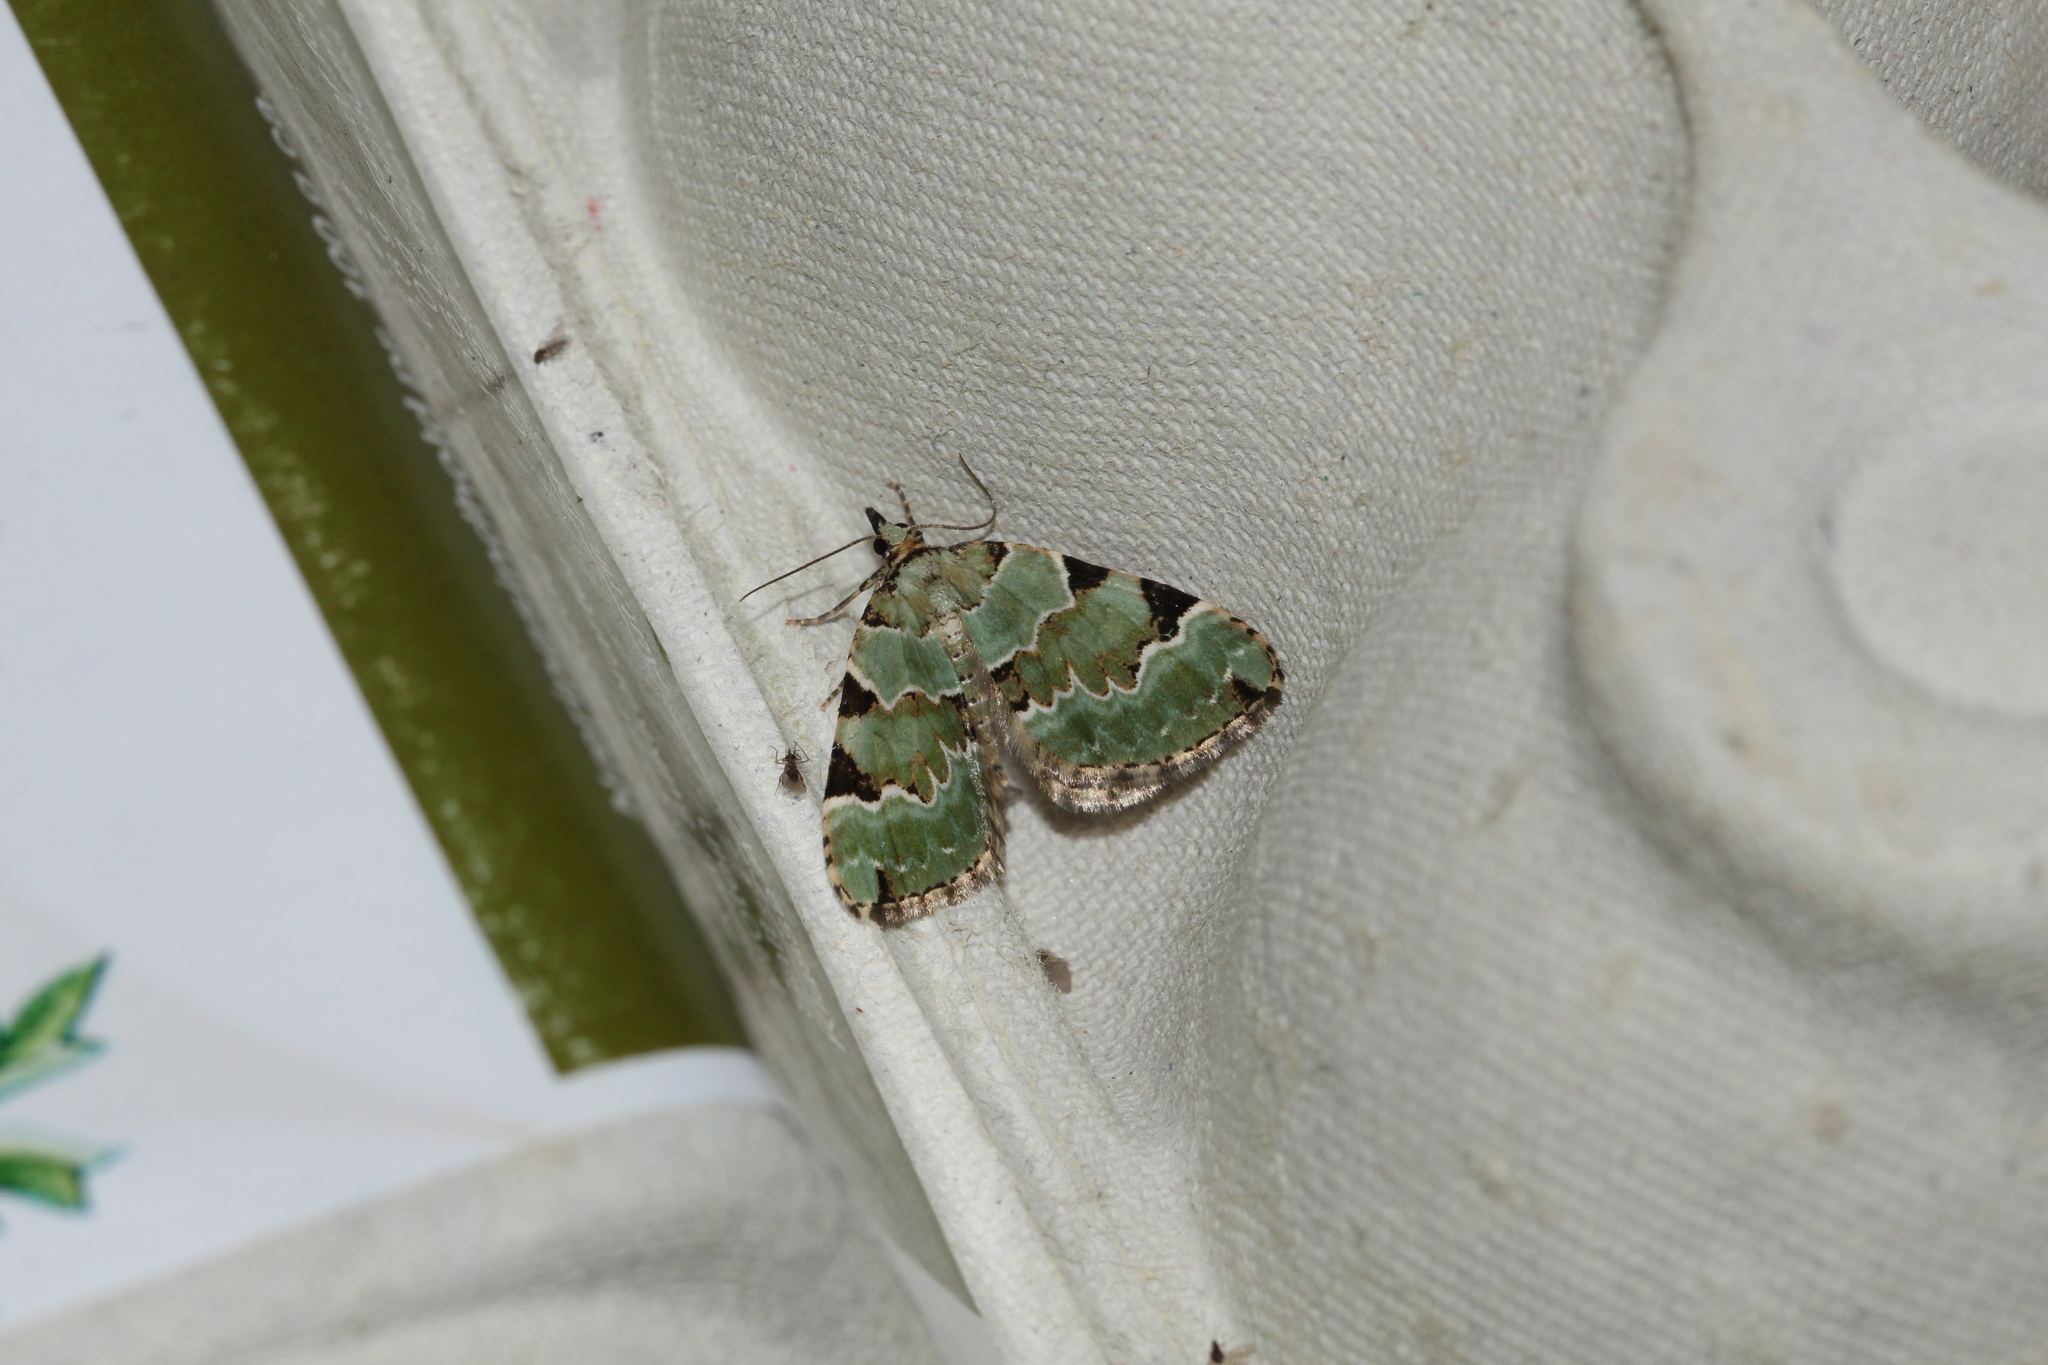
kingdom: Animalia
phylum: Arthropoda
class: Insecta
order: Lepidoptera
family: Geometridae
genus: Colostygia
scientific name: Colostygia pectinataria
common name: Green carpet
